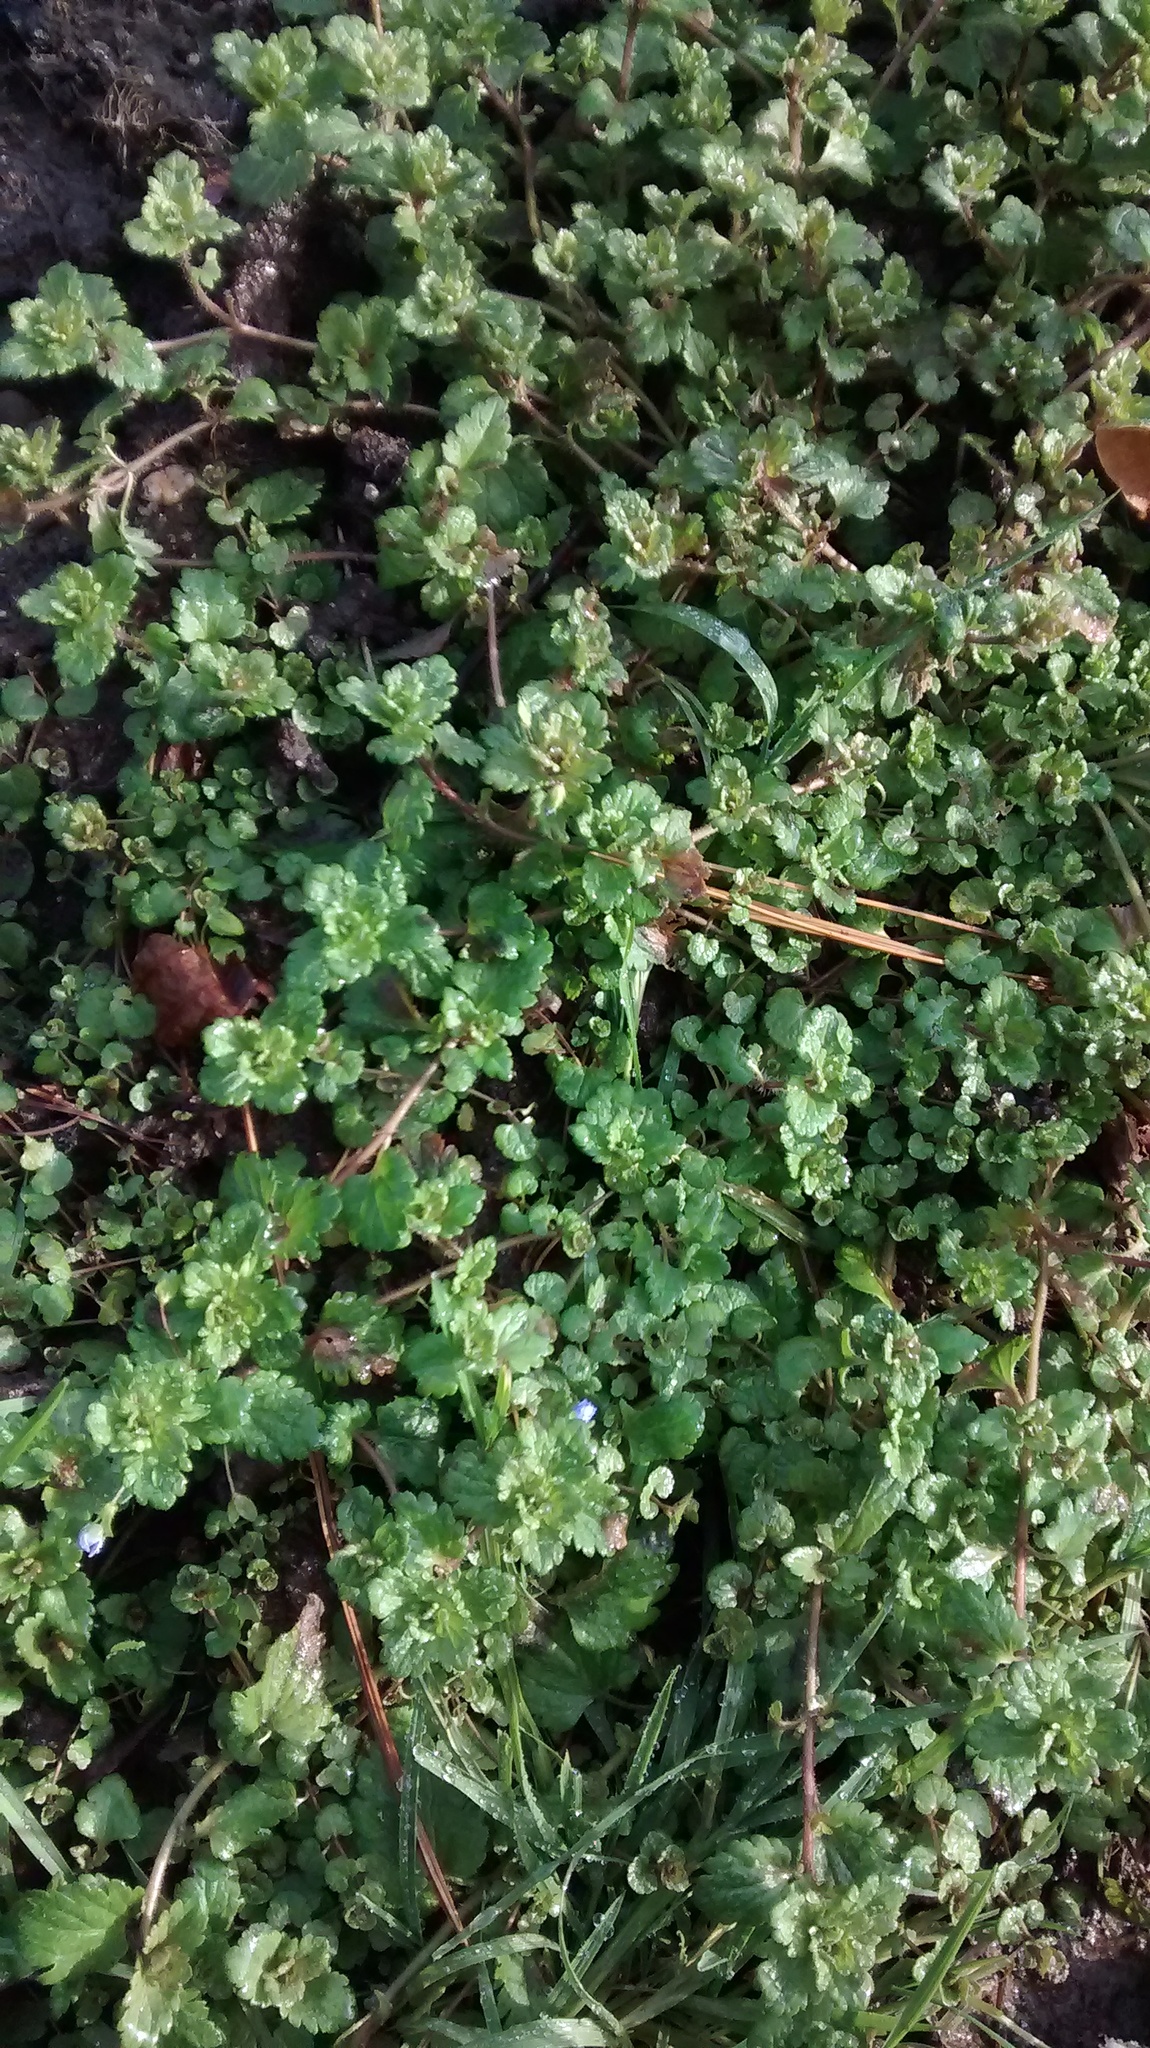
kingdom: Plantae
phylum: Tracheophyta
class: Magnoliopsida
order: Lamiales
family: Plantaginaceae
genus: Veronica
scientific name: Veronica persica
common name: Common field-speedwell
